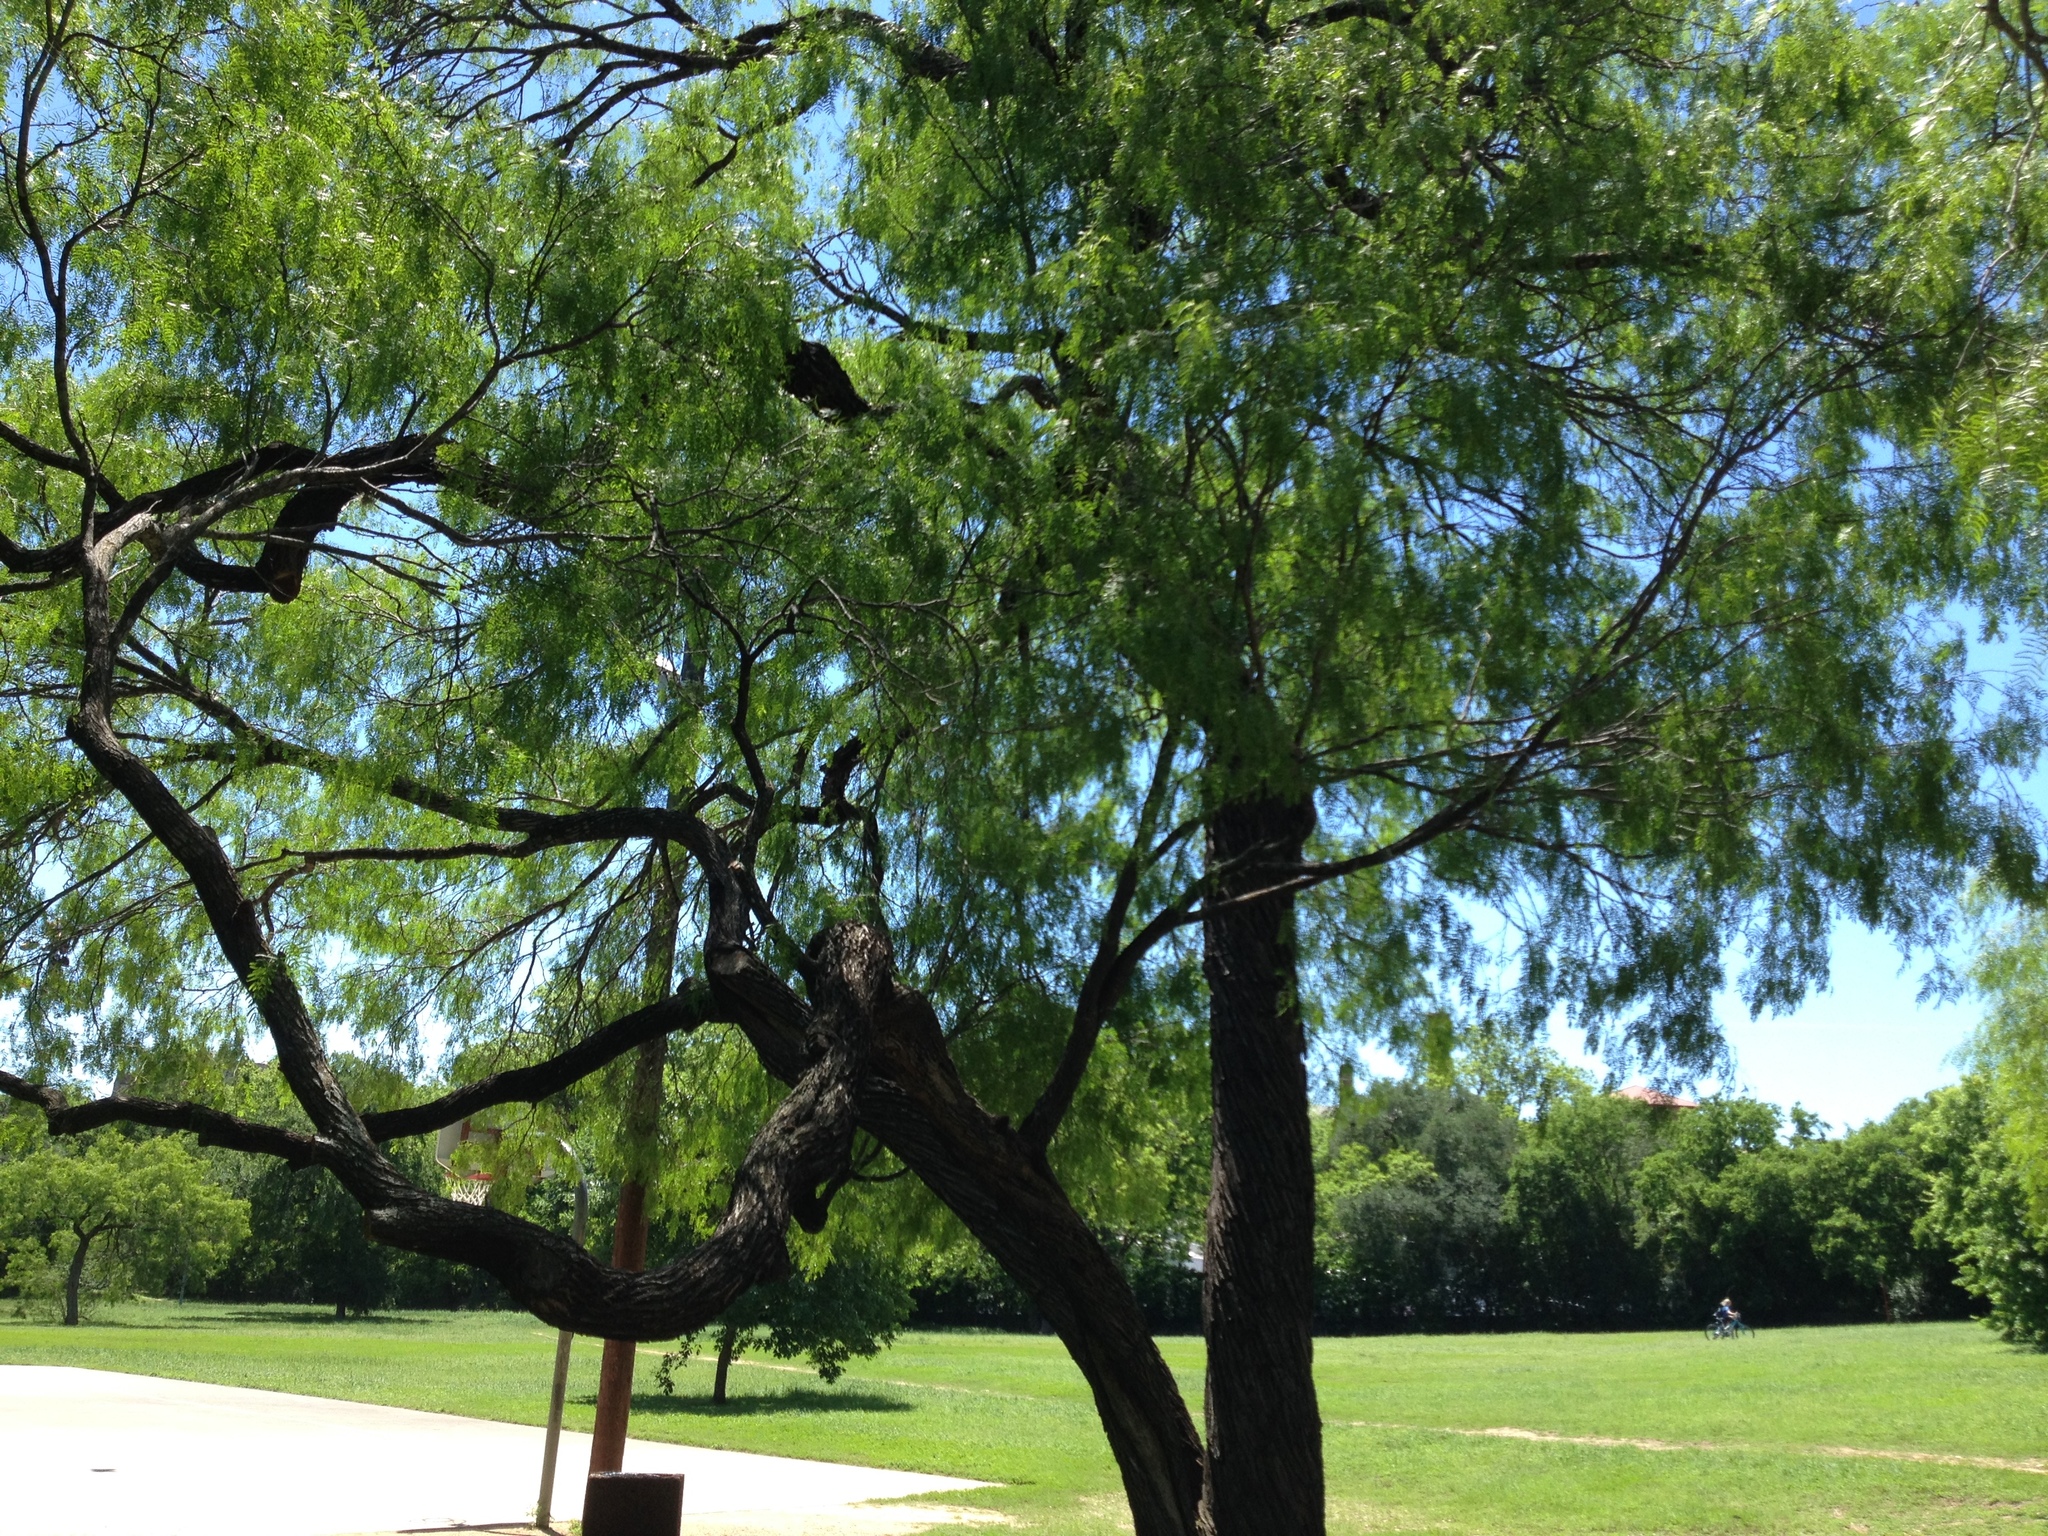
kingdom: Plantae
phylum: Tracheophyta
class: Magnoliopsida
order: Fabales
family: Fabaceae
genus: Prosopis
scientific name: Prosopis glandulosa
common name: Honey mesquite
